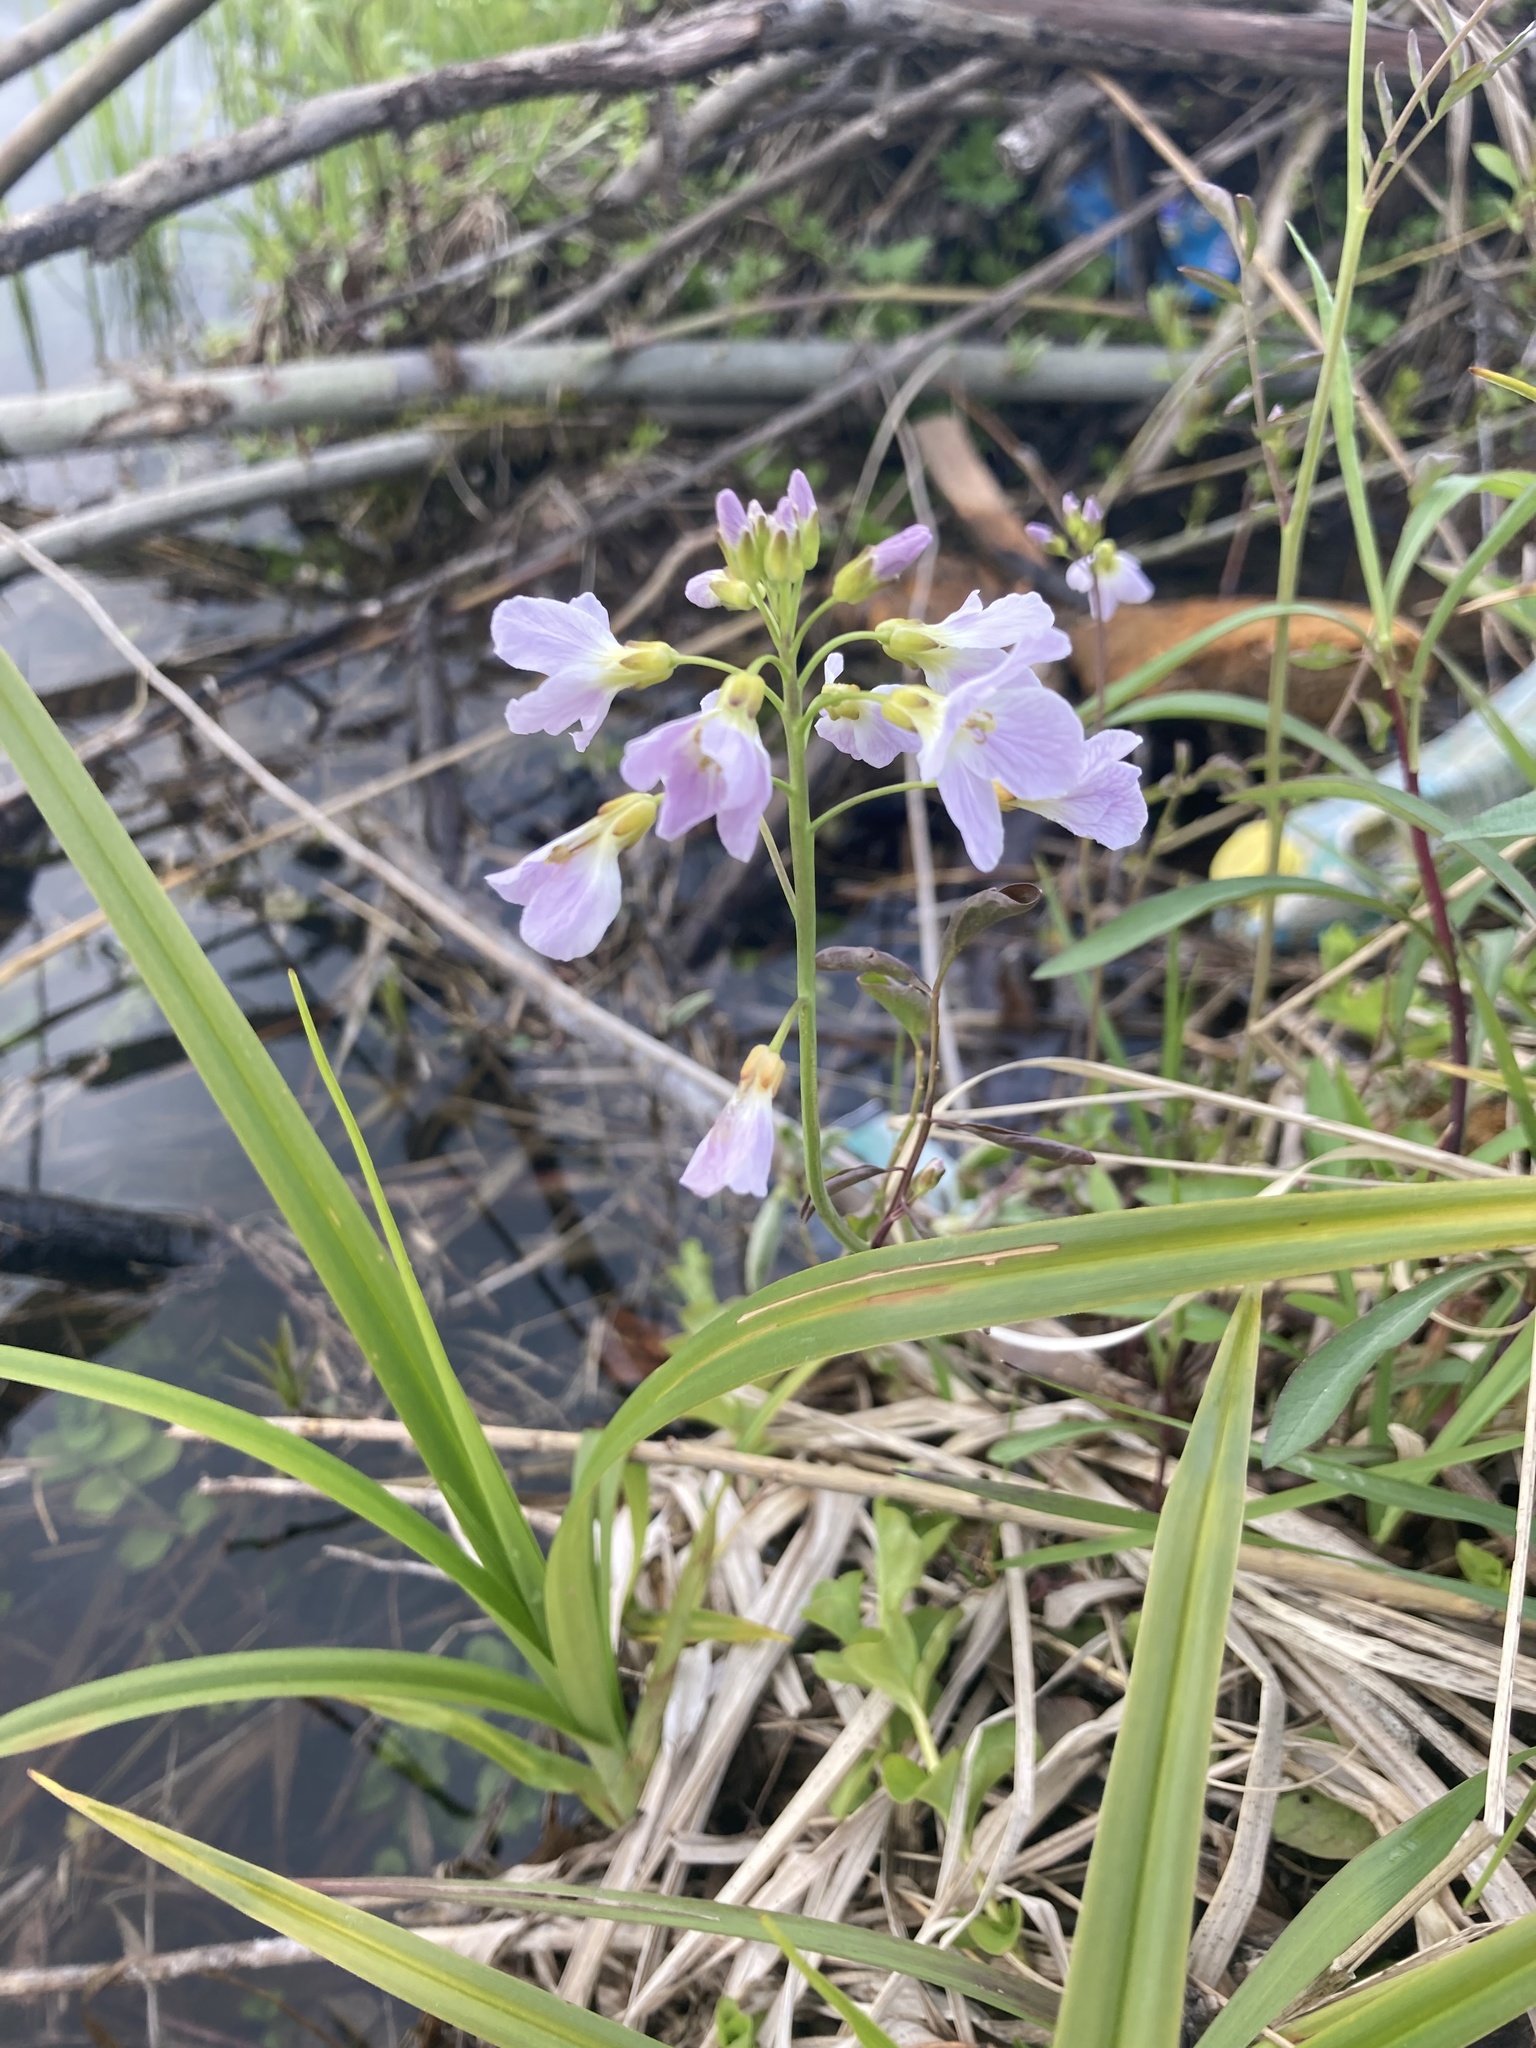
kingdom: Plantae
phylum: Tracheophyta
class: Magnoliopsida
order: Brassicales
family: Brassicaceae
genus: Cardamine
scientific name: Cardamine dentata
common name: Toothed bittercress
